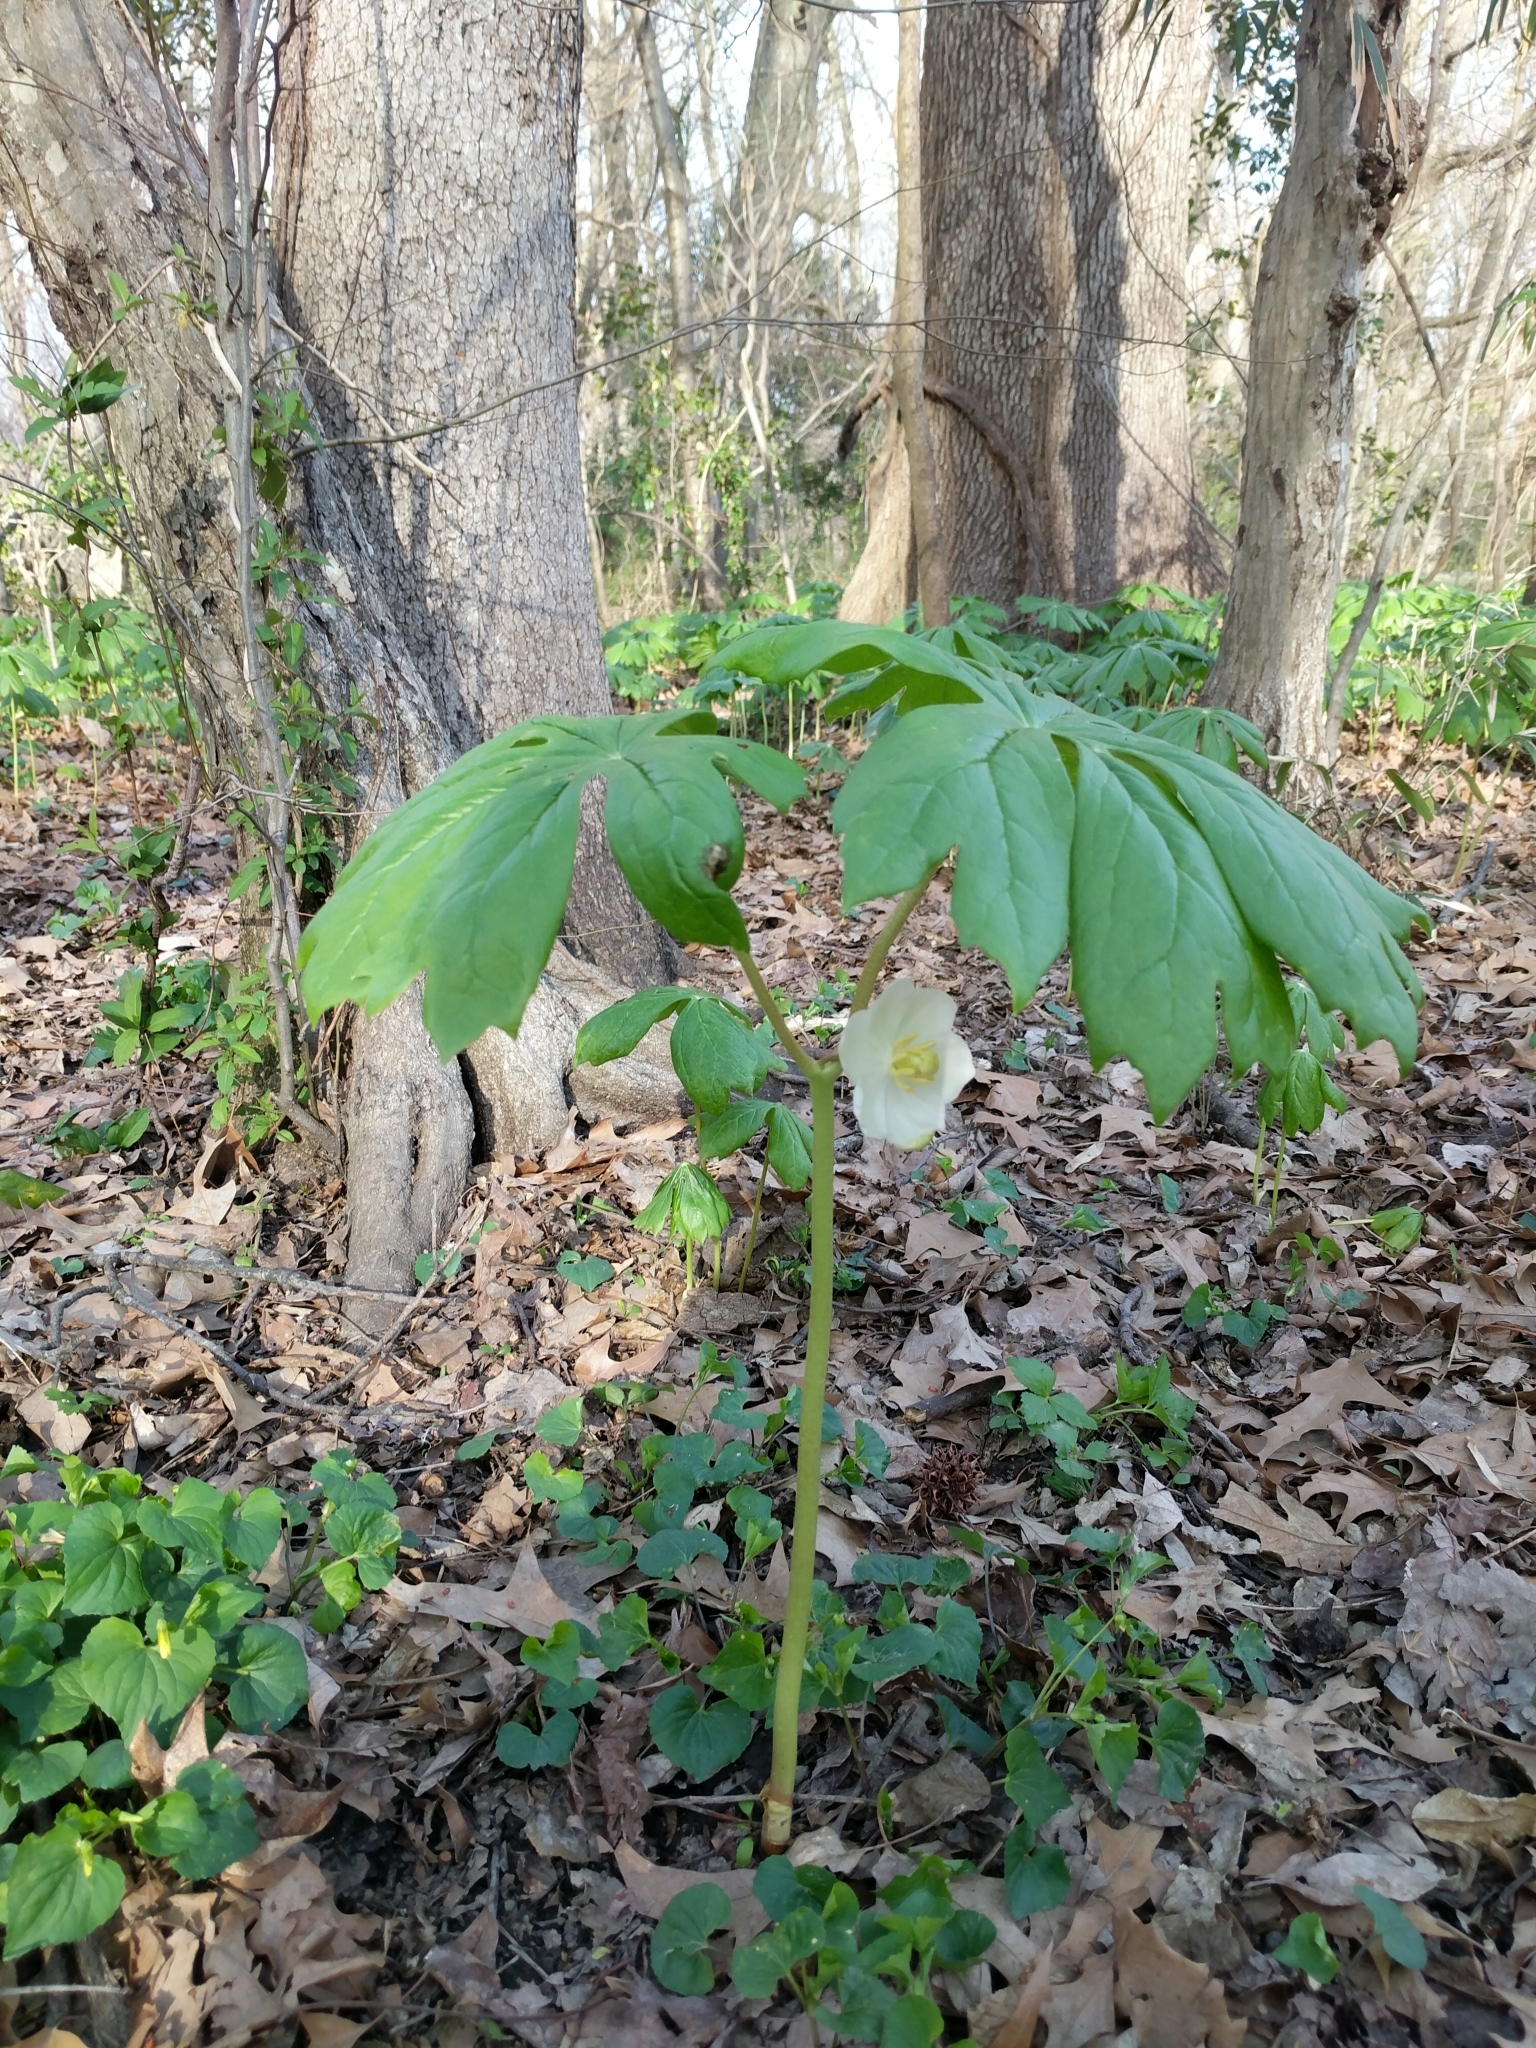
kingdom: Plantae
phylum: Tracheophyta
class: Magnoliopsida
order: Ranunculales
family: Berberidaceae
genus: Podophyllum
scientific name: Podophyllum peltatum
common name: Wild mandrake
